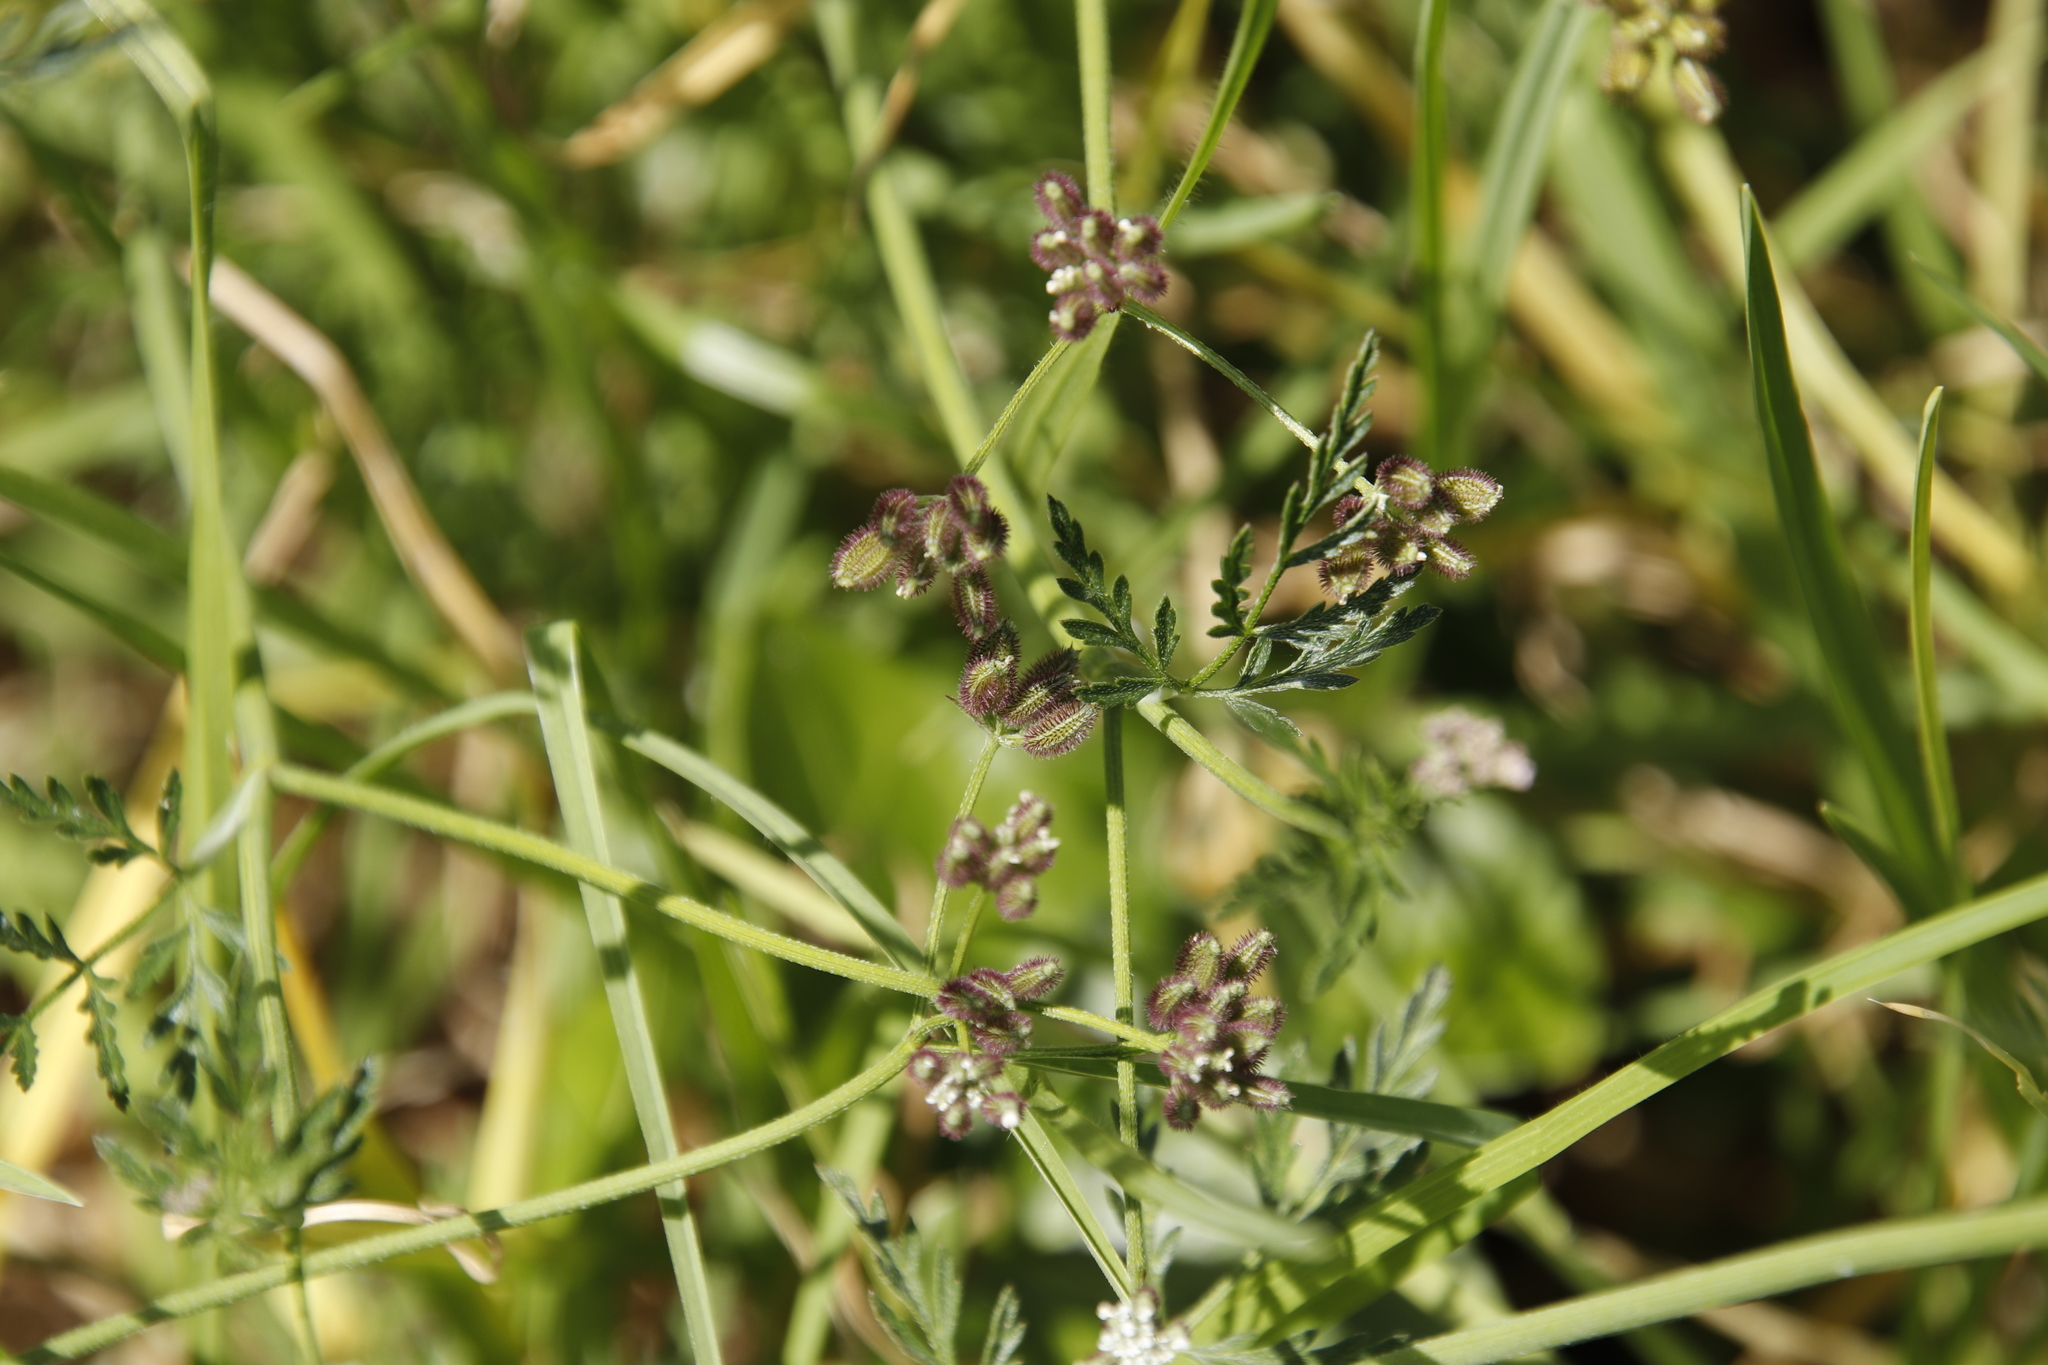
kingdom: Plantae
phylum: Tracheophyta
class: Magnoliopsida
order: Apiales
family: Apiaceae
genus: Torilis
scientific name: Torilis arvensis
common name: Spreading hedge-parsley
